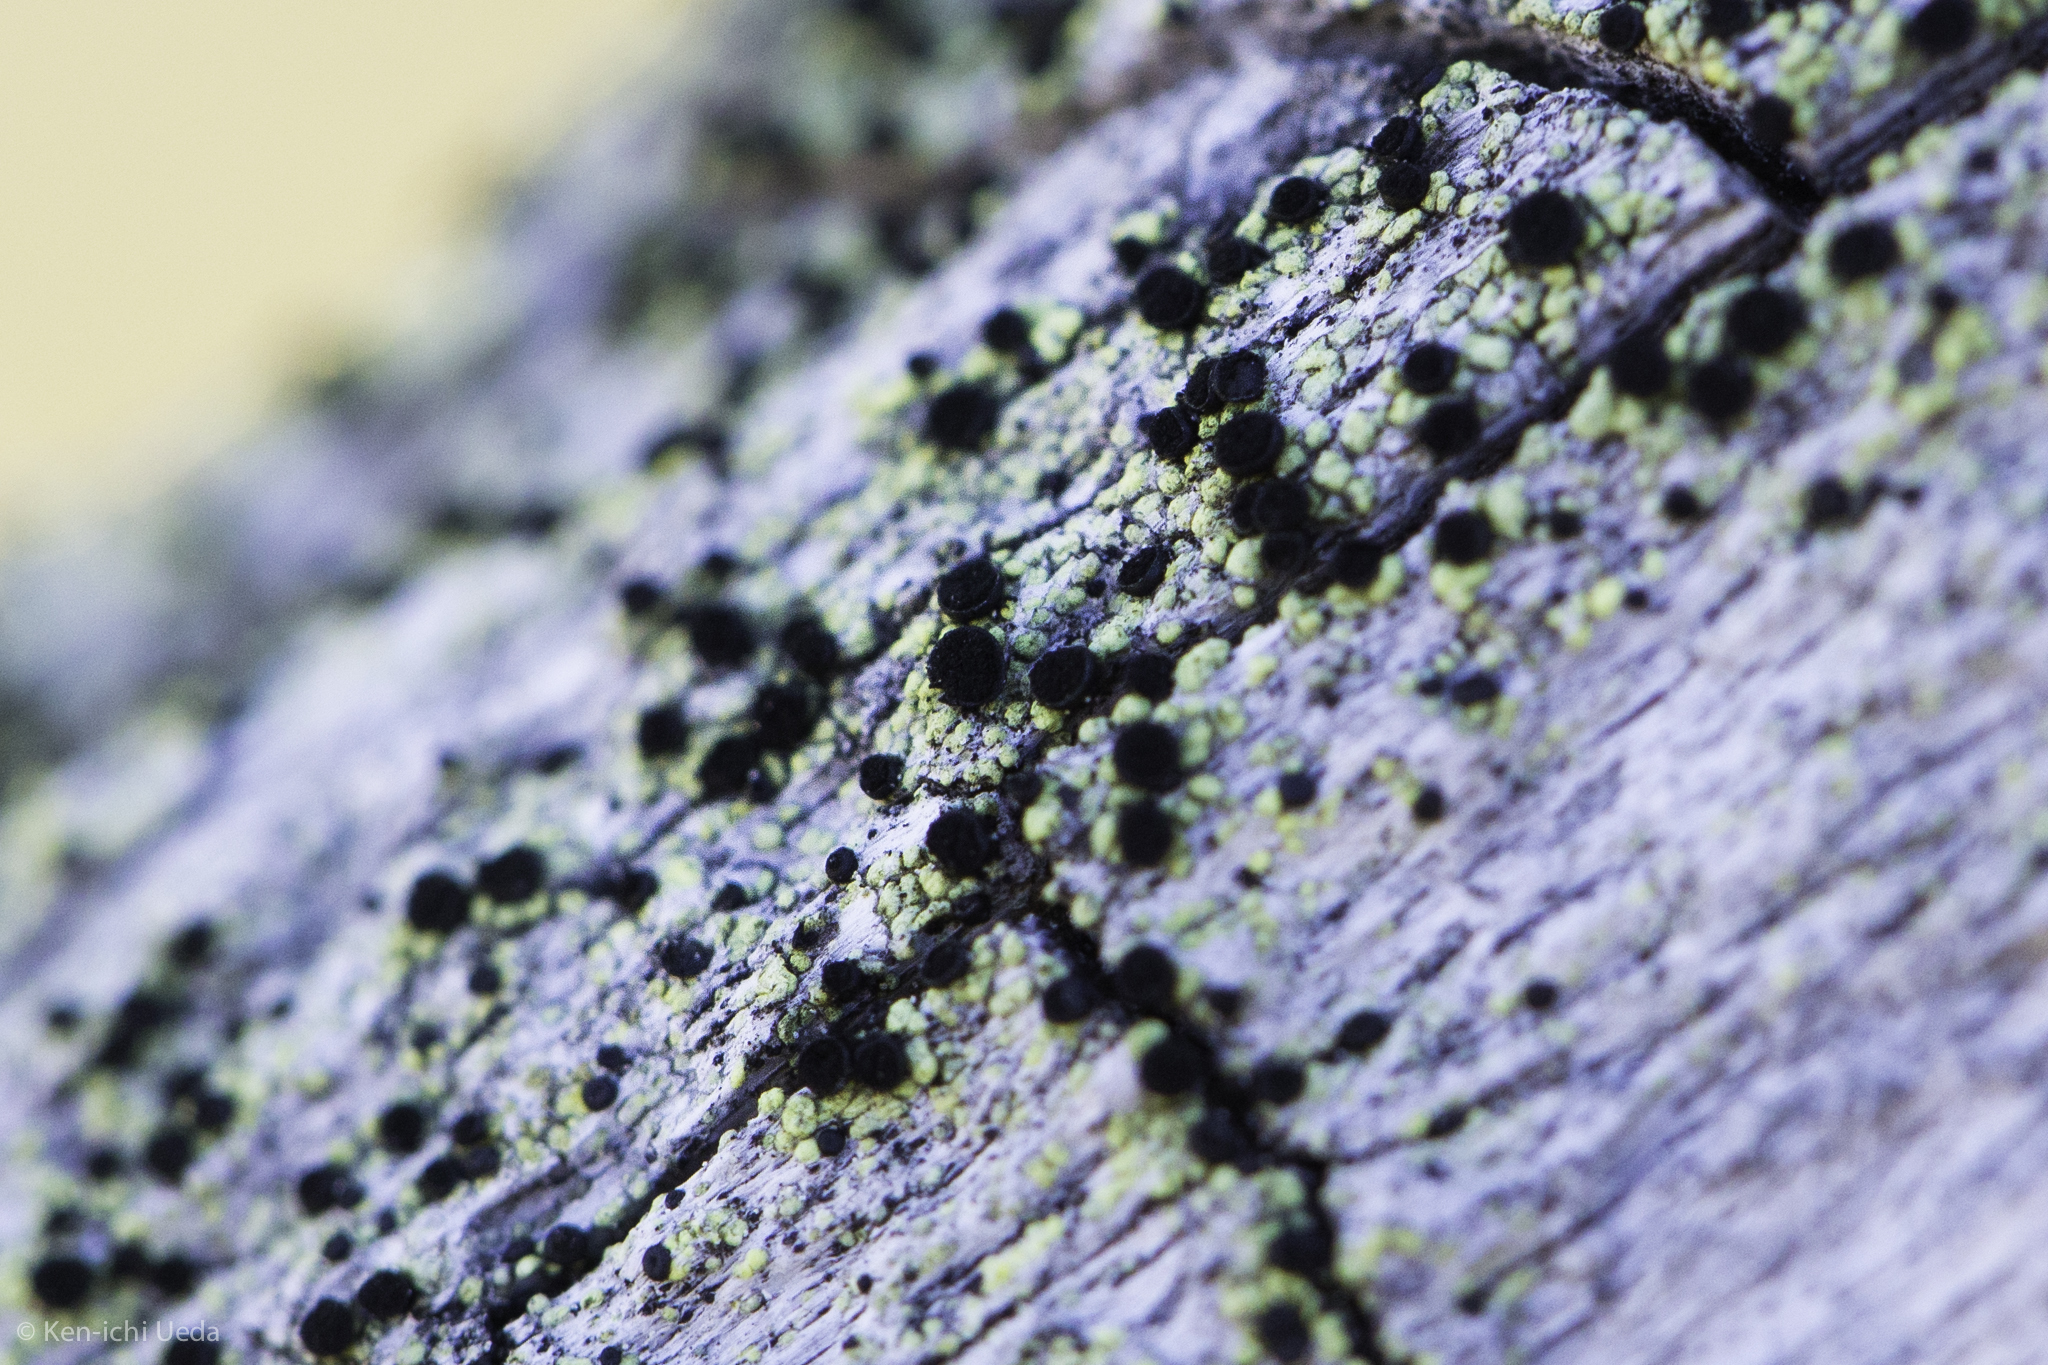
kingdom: Fungi
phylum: Ascomycota
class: Lecanoromycetes
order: Caliciales
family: Caliciaceae
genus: Calicium
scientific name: Calicium pinicola
